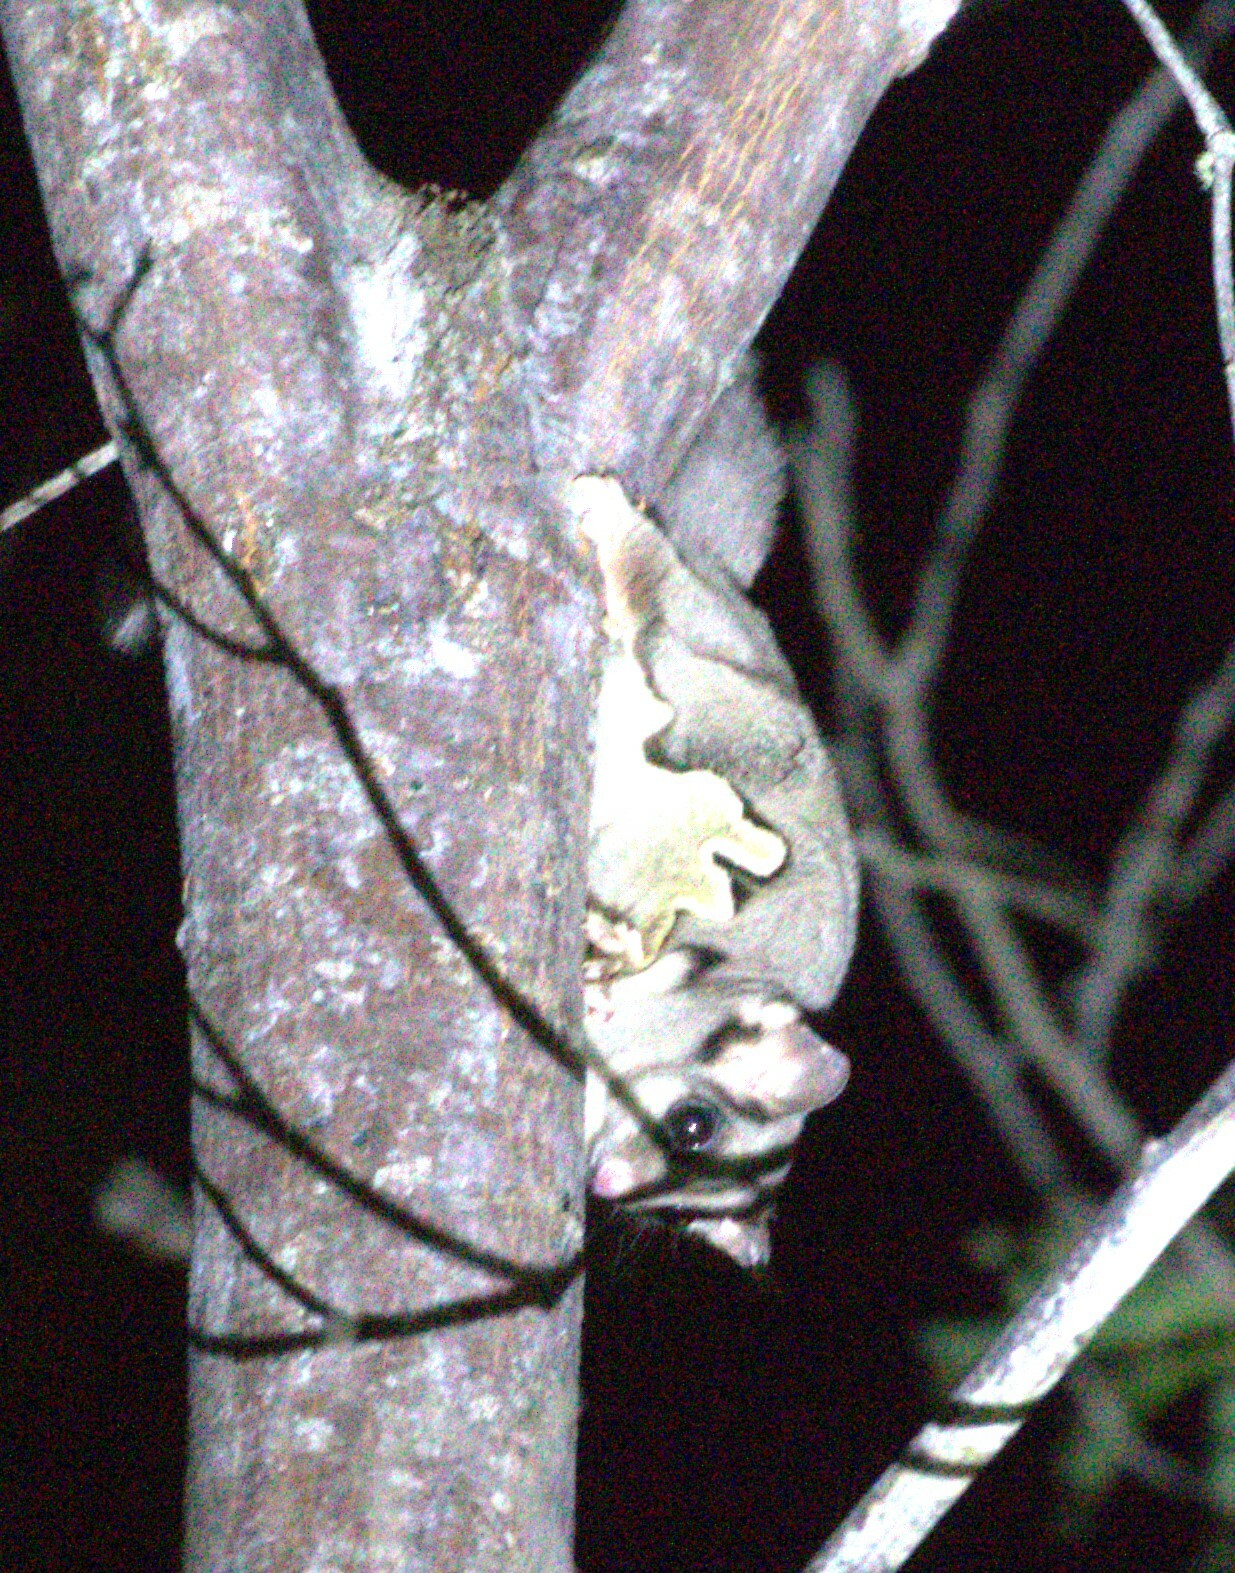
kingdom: Animalia
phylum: Chordata
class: Mammalia
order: Diprotodontia
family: Petauridae
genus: Petaurus
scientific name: Petaurus breviceps
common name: Sugar glider
